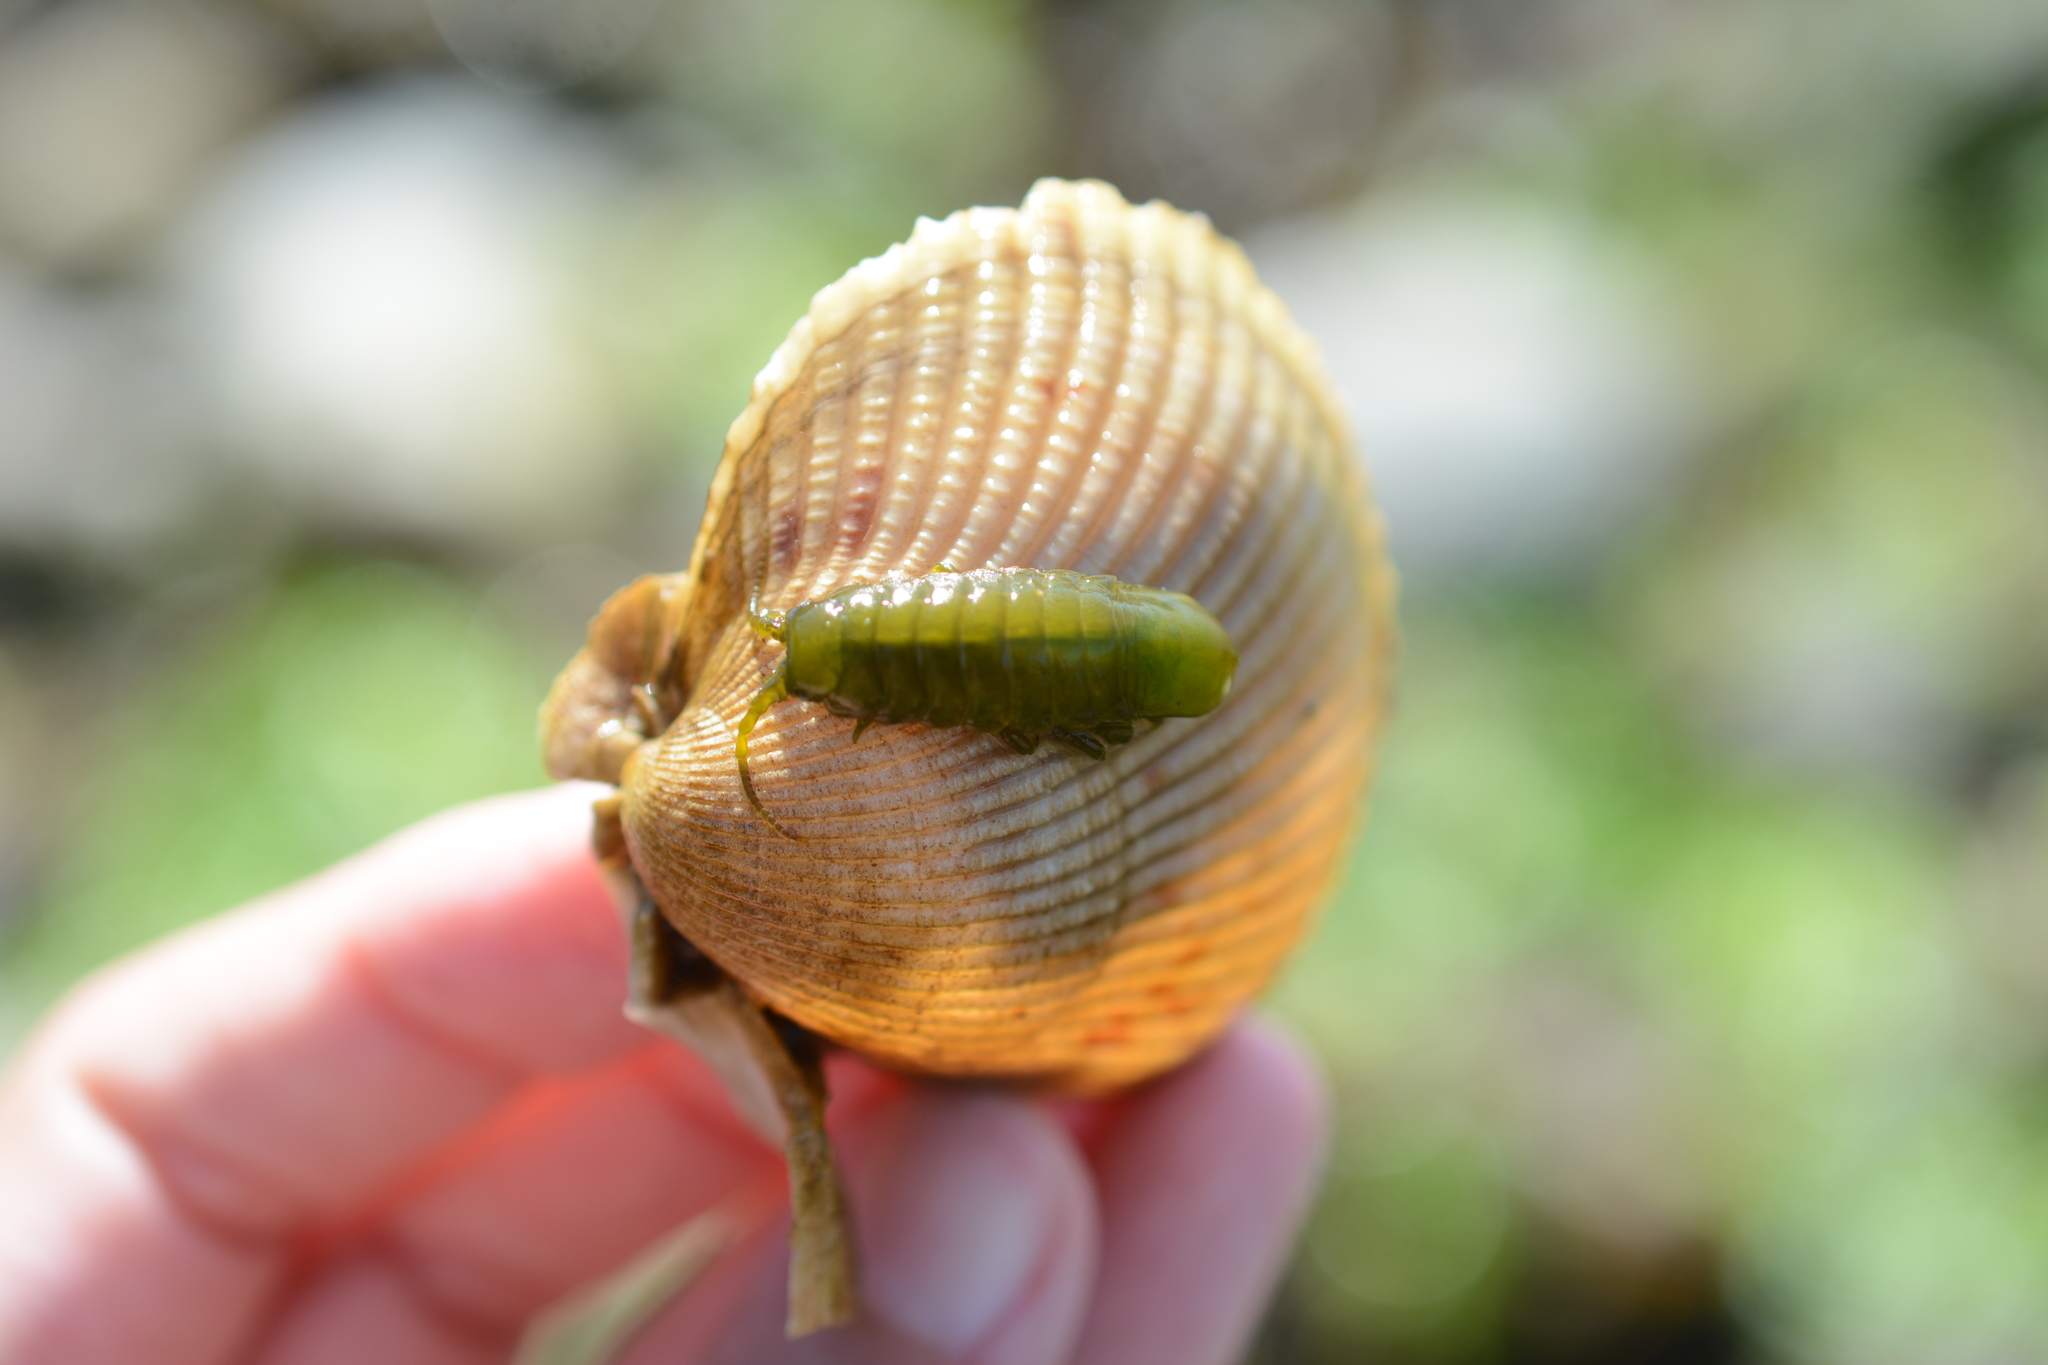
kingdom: Animalia
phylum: Arthropoda
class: Malacostraca
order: Isopoda
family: Idoteidae
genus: Pentidotea
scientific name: Pentidotea wosnesenskii
